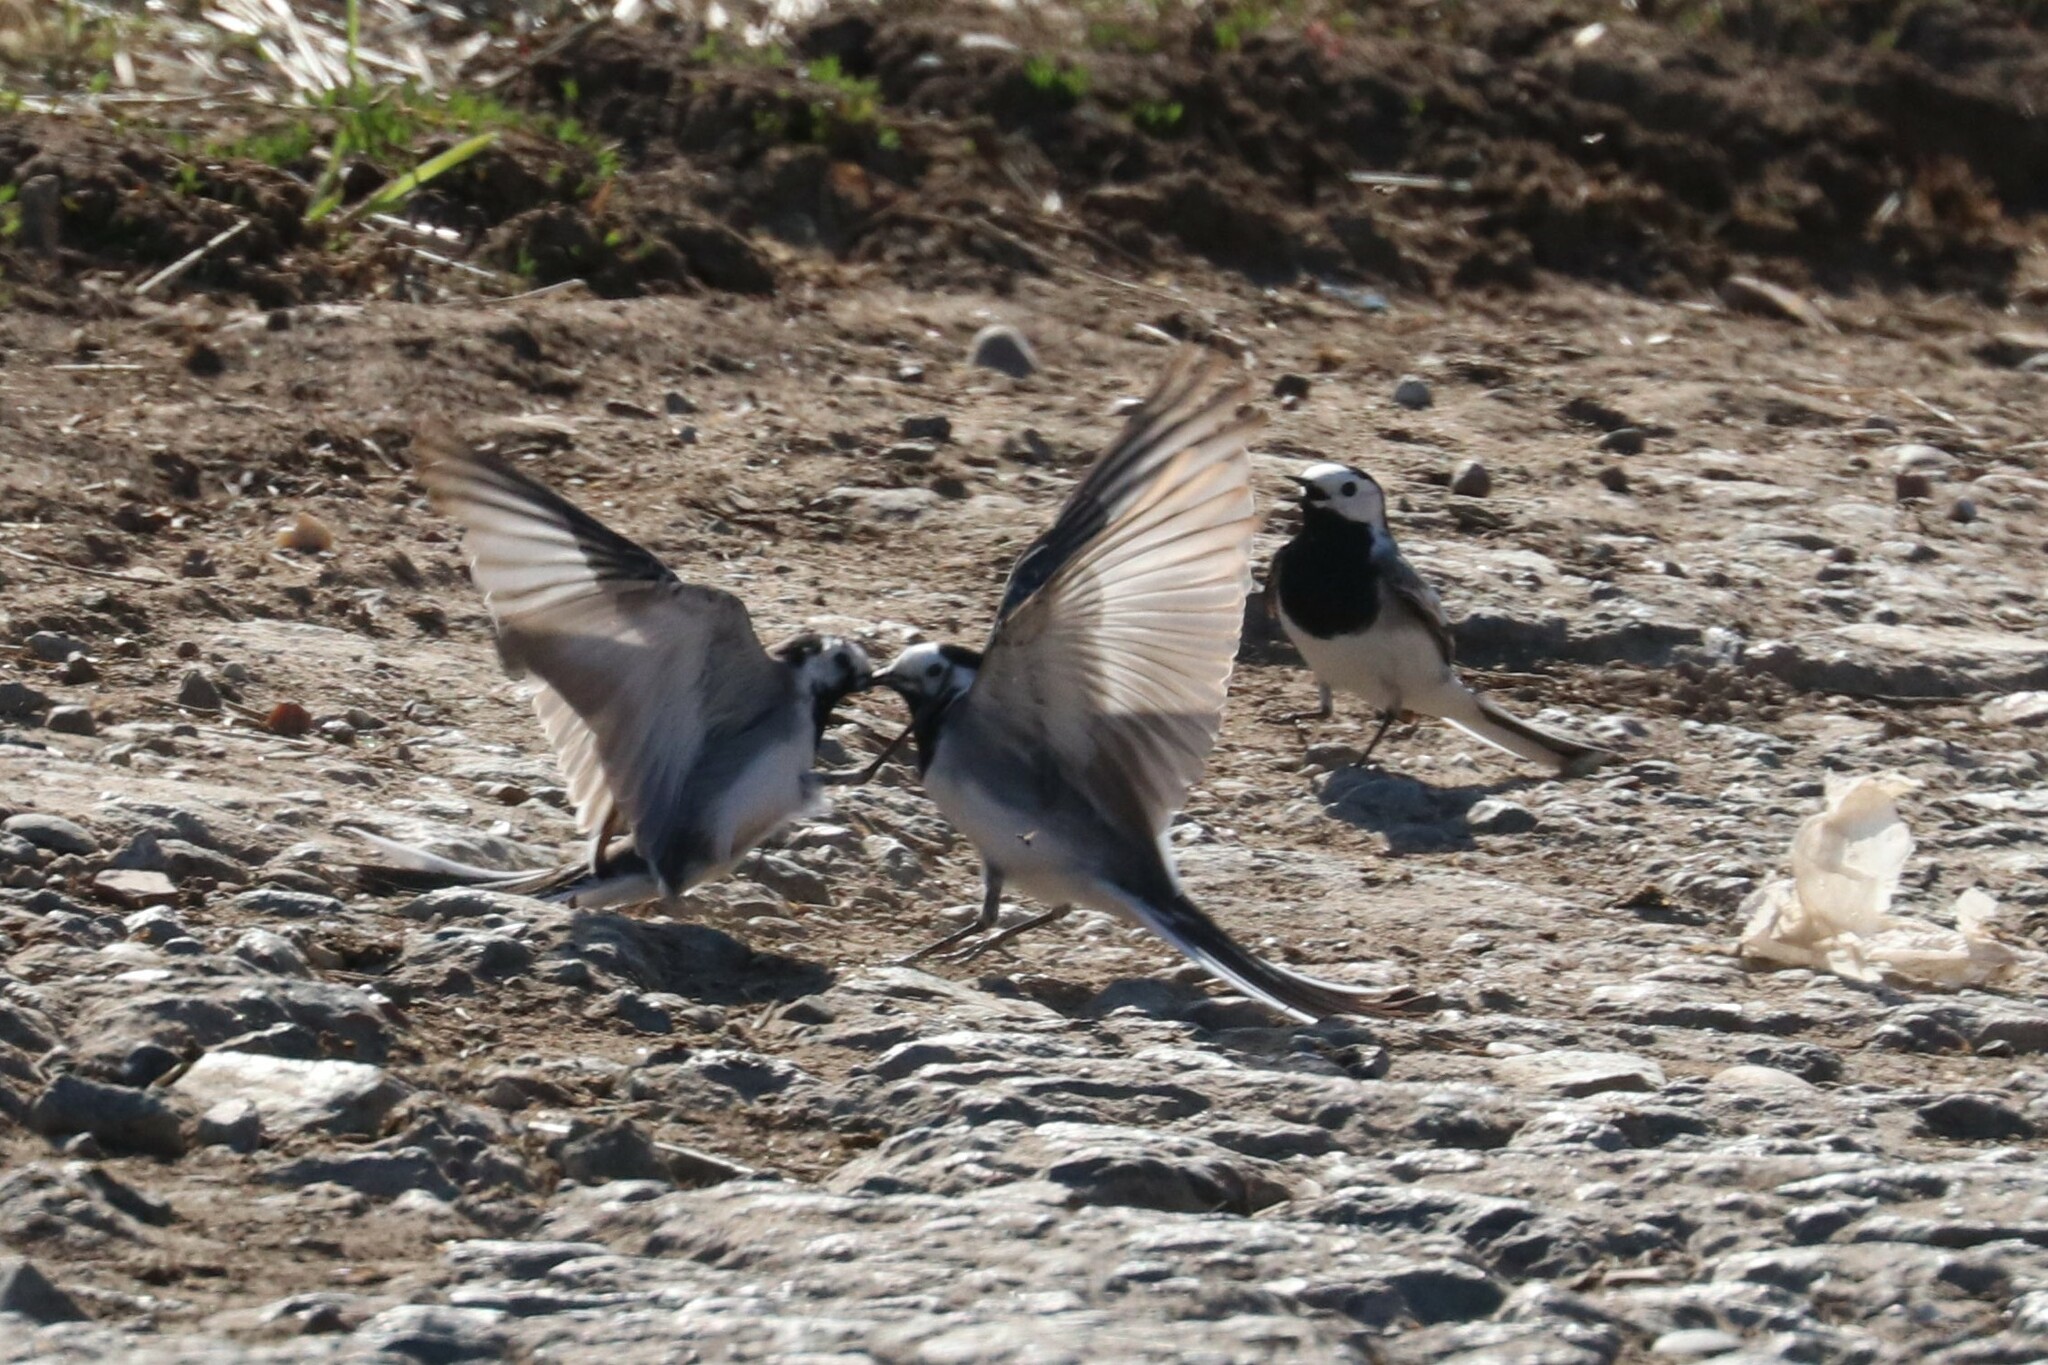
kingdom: Animalia
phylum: Chordata
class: Aves
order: Passeriformes
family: Motacillidae
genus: Motacilla
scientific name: Motacilla alba
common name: White wagtail
